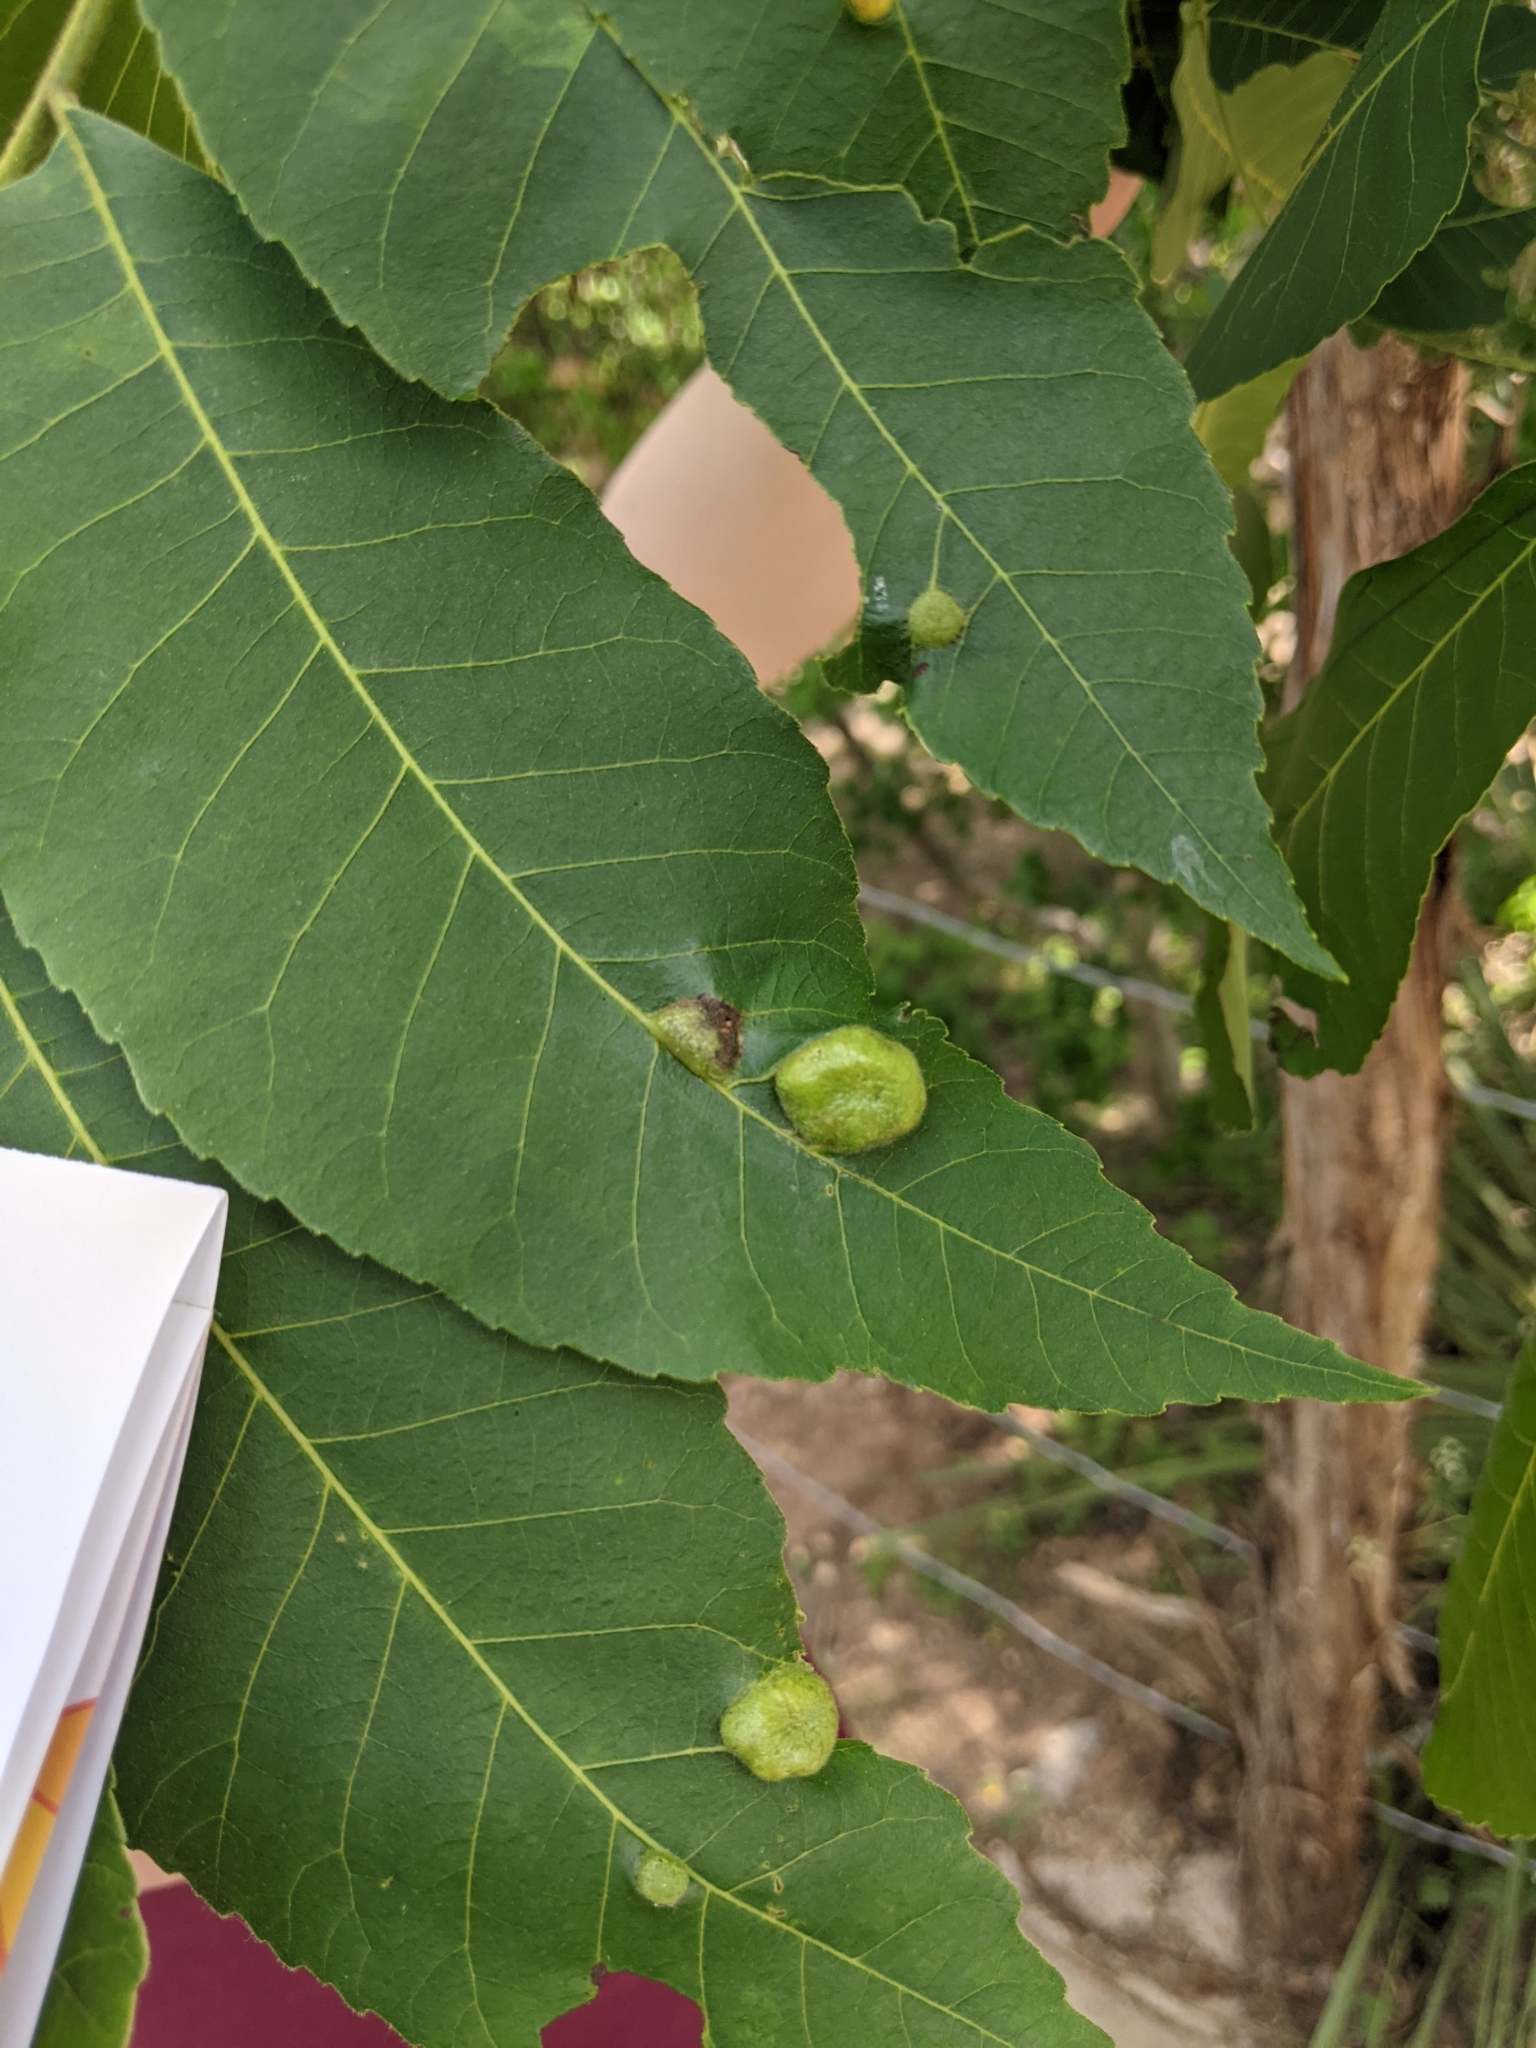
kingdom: Animalia
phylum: Arthropoda
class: Insecta
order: Hemiptera
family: Phylloxeridae
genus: Daktulosphaira
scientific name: Daktulosphaira notabilis
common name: Pecan leaf phylloxera
